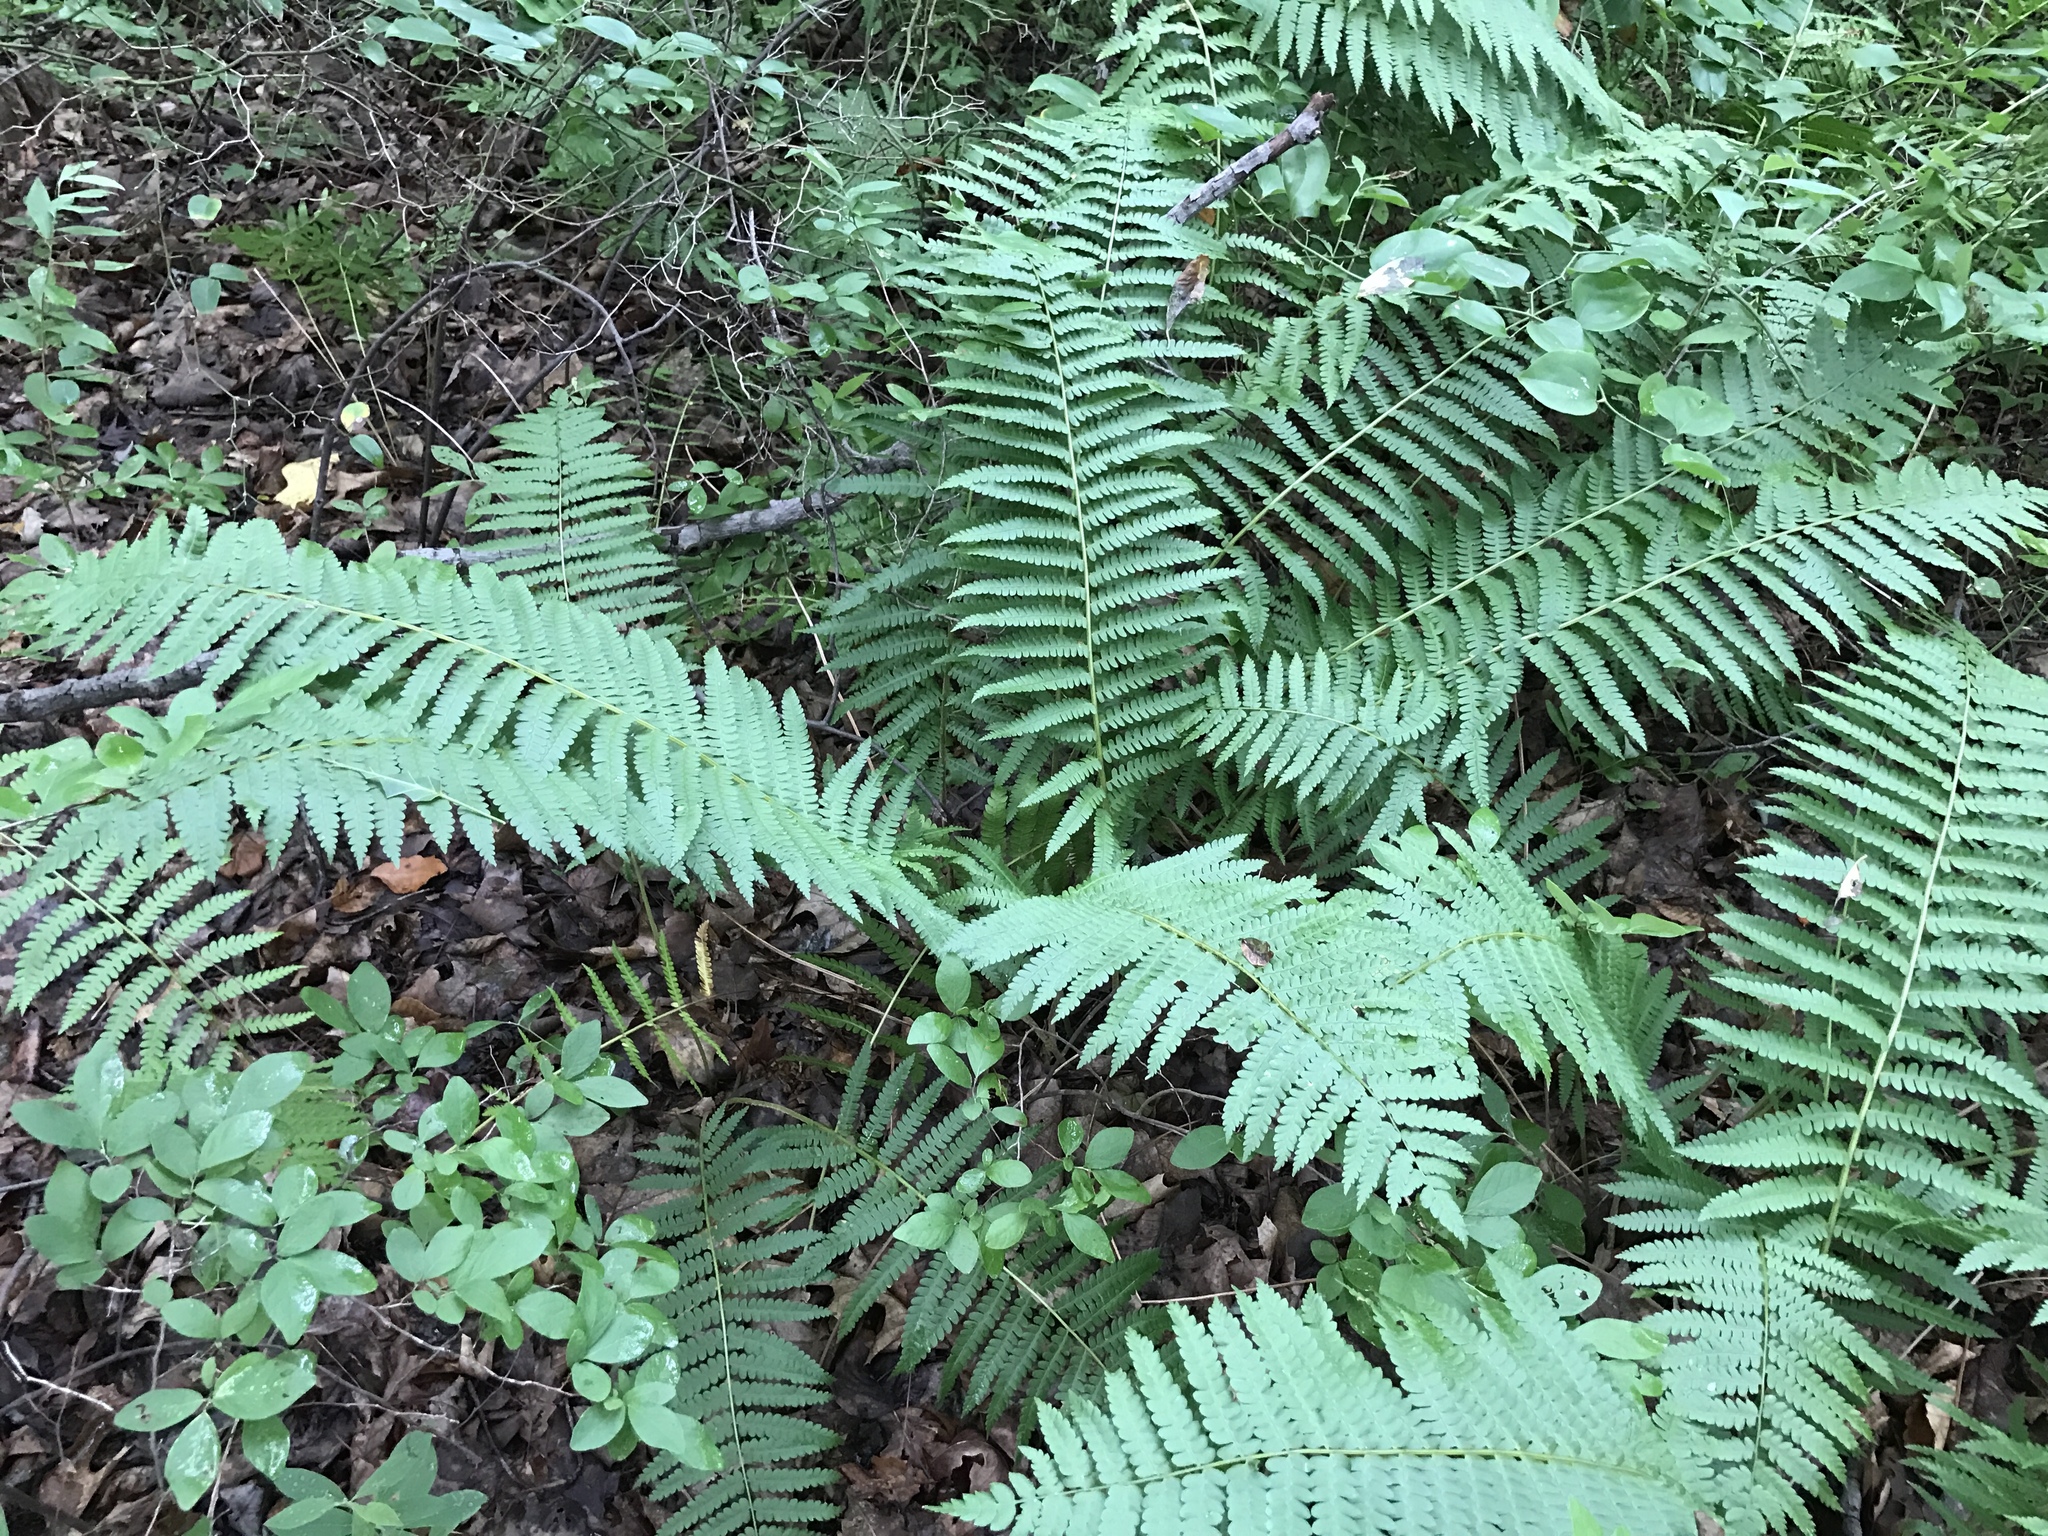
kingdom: Plantae
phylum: Tracheophyta
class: Polypodiopsida
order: Osmundales
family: Osmundaceae
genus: Osmundastrum
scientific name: Osmundastrum cinnamomeum
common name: Cinnamon fern
